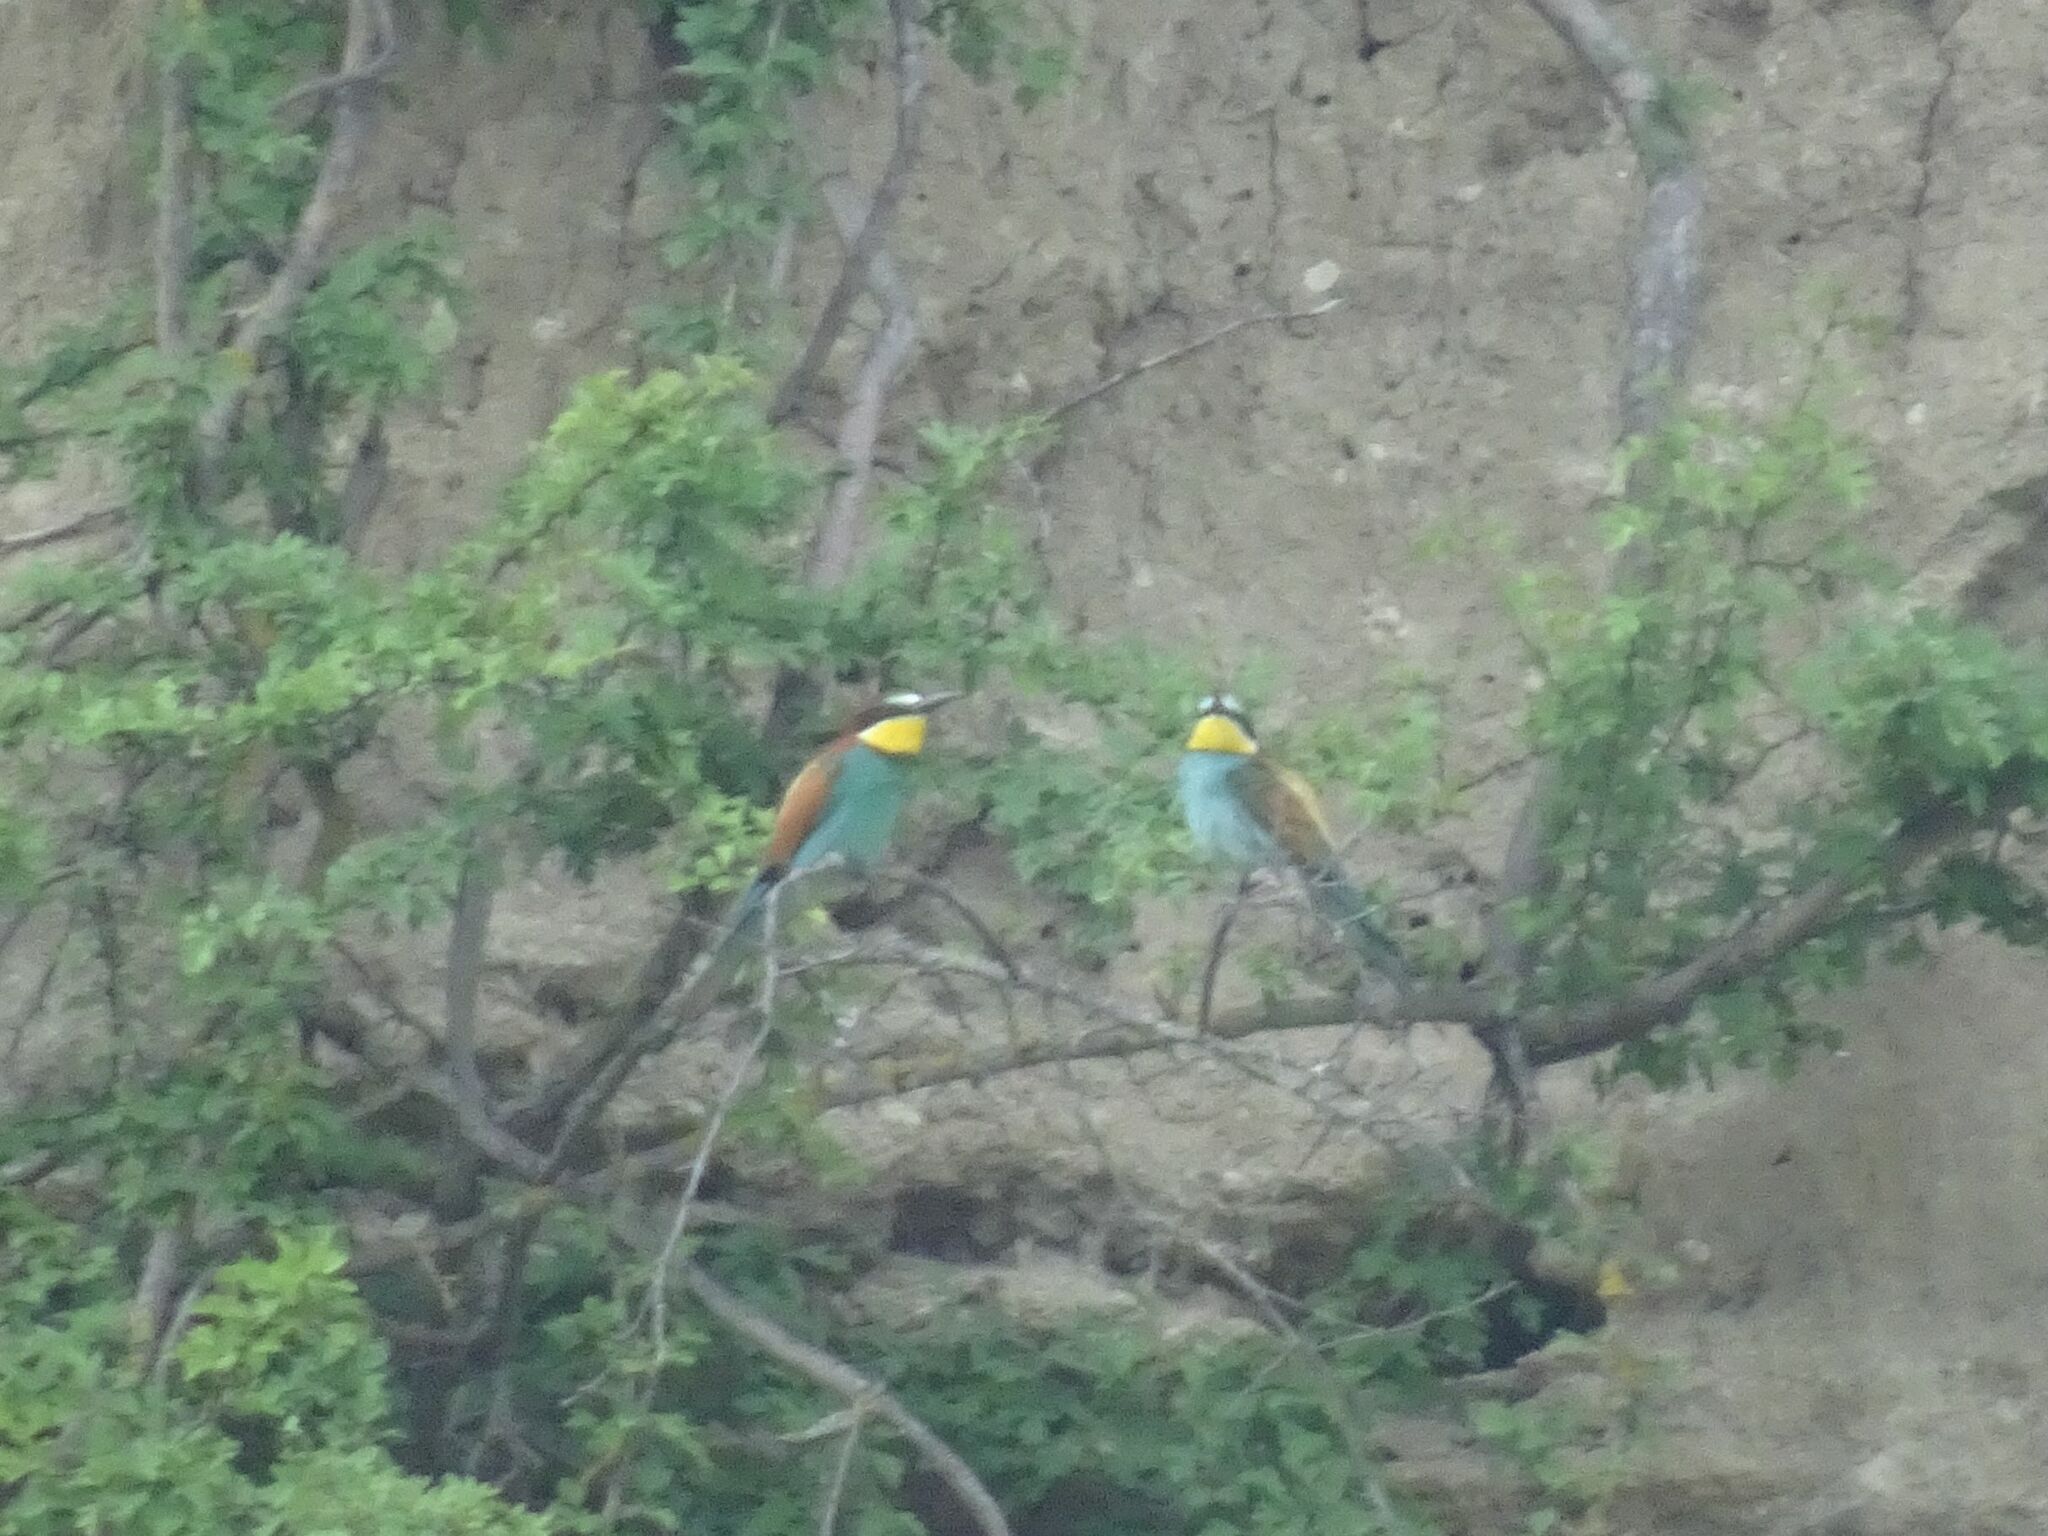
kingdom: Animalia
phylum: Chordata
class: Aves
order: Coraciiformes
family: Meropidae
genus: Merops
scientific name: Merops apiaster
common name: European bee-eater
